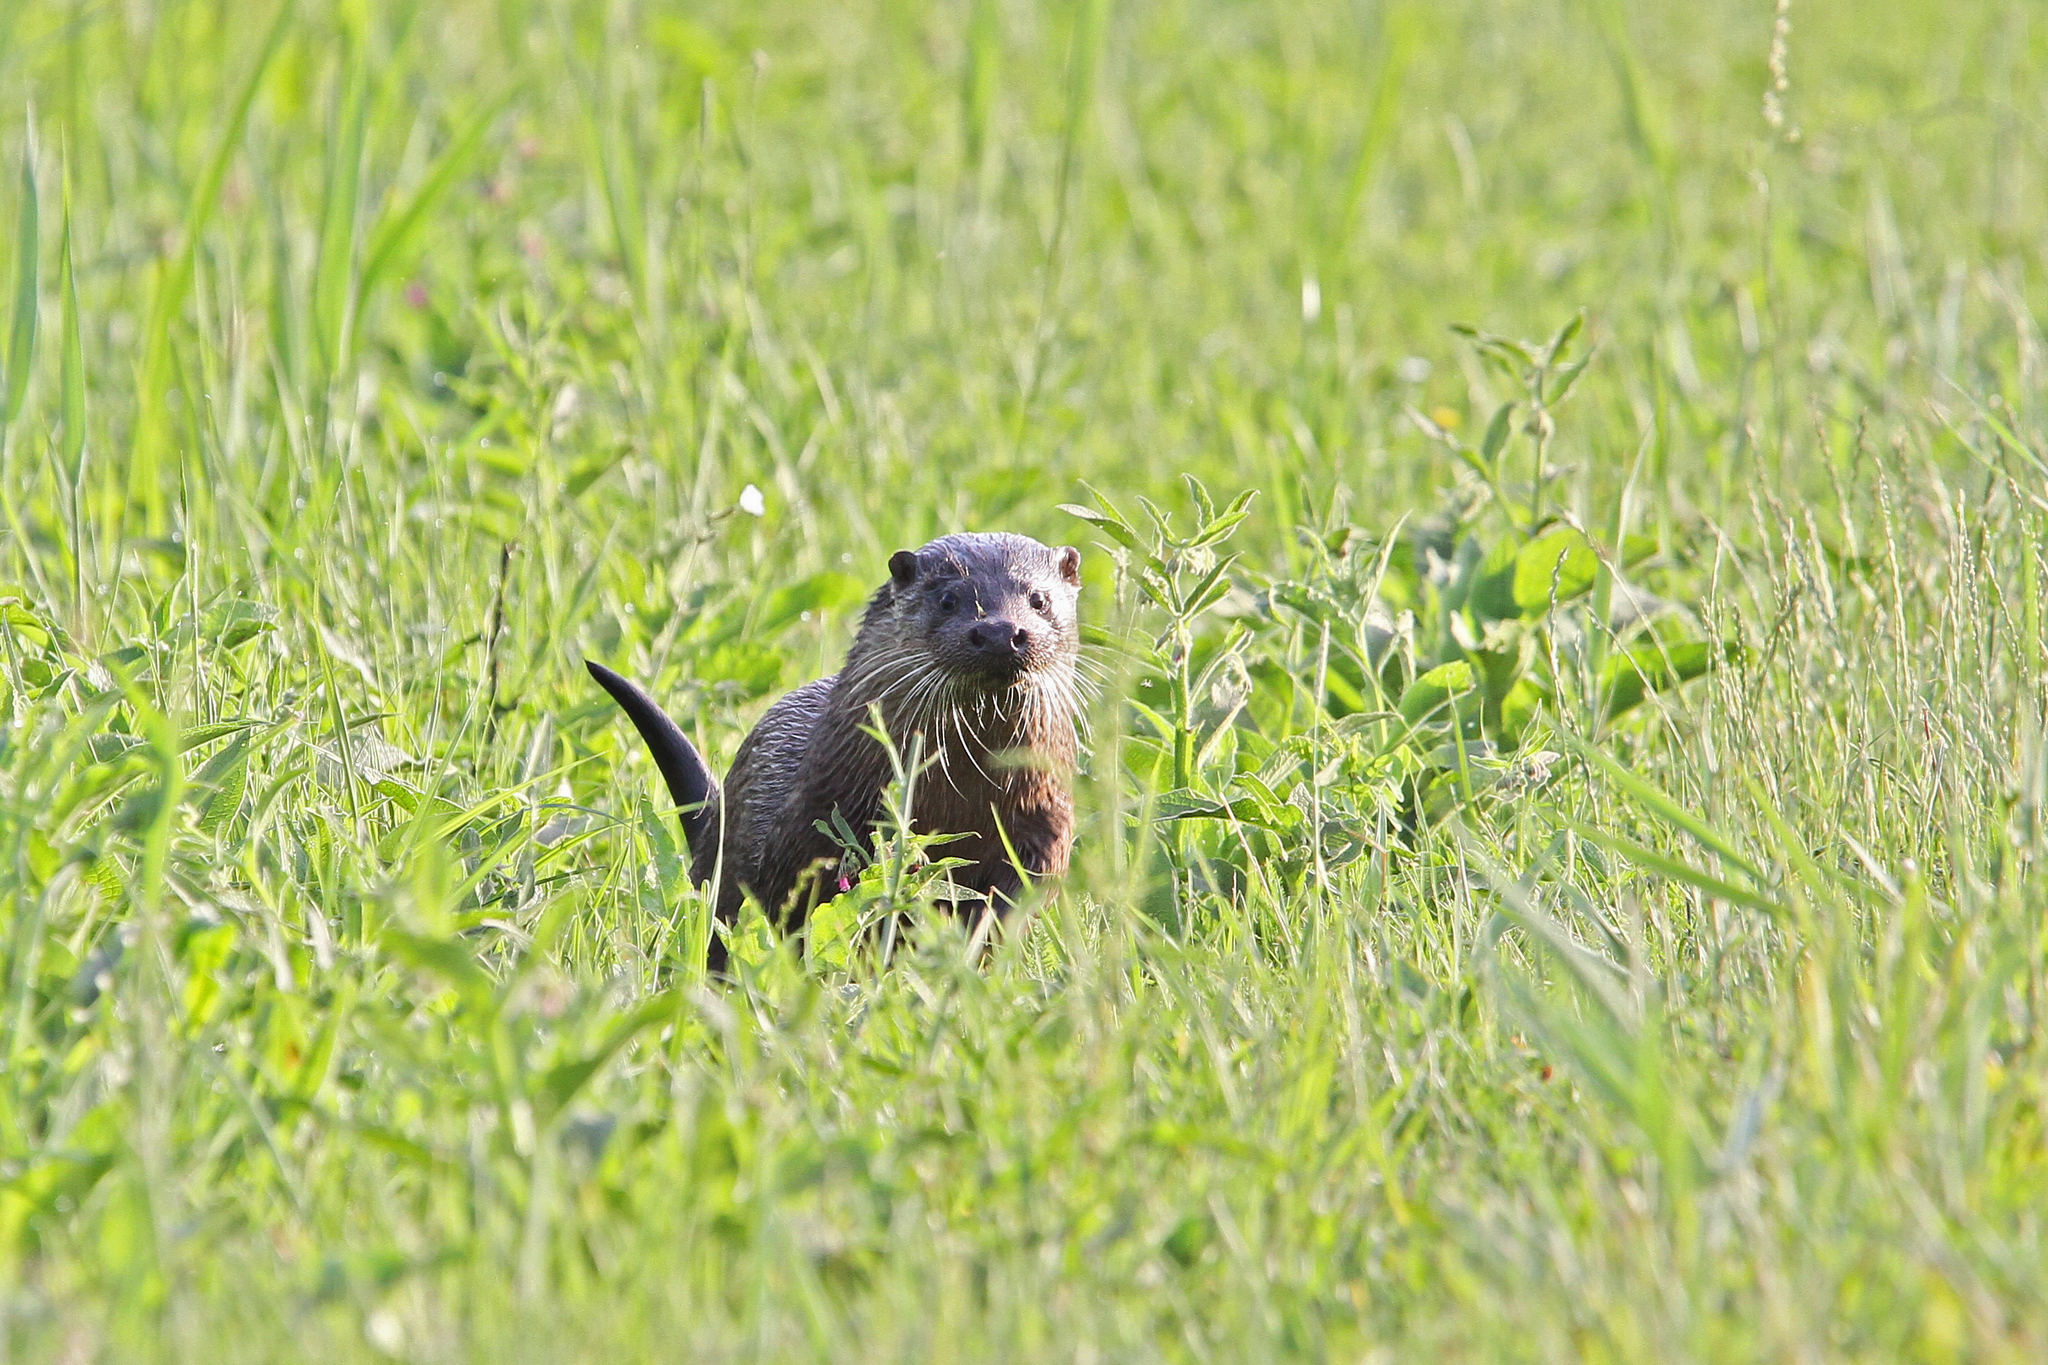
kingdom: Animalia
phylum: Chordata
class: Mammalia
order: Carnivora
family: Mustelidae
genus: Lutra
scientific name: Lutra lutra
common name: European otter
